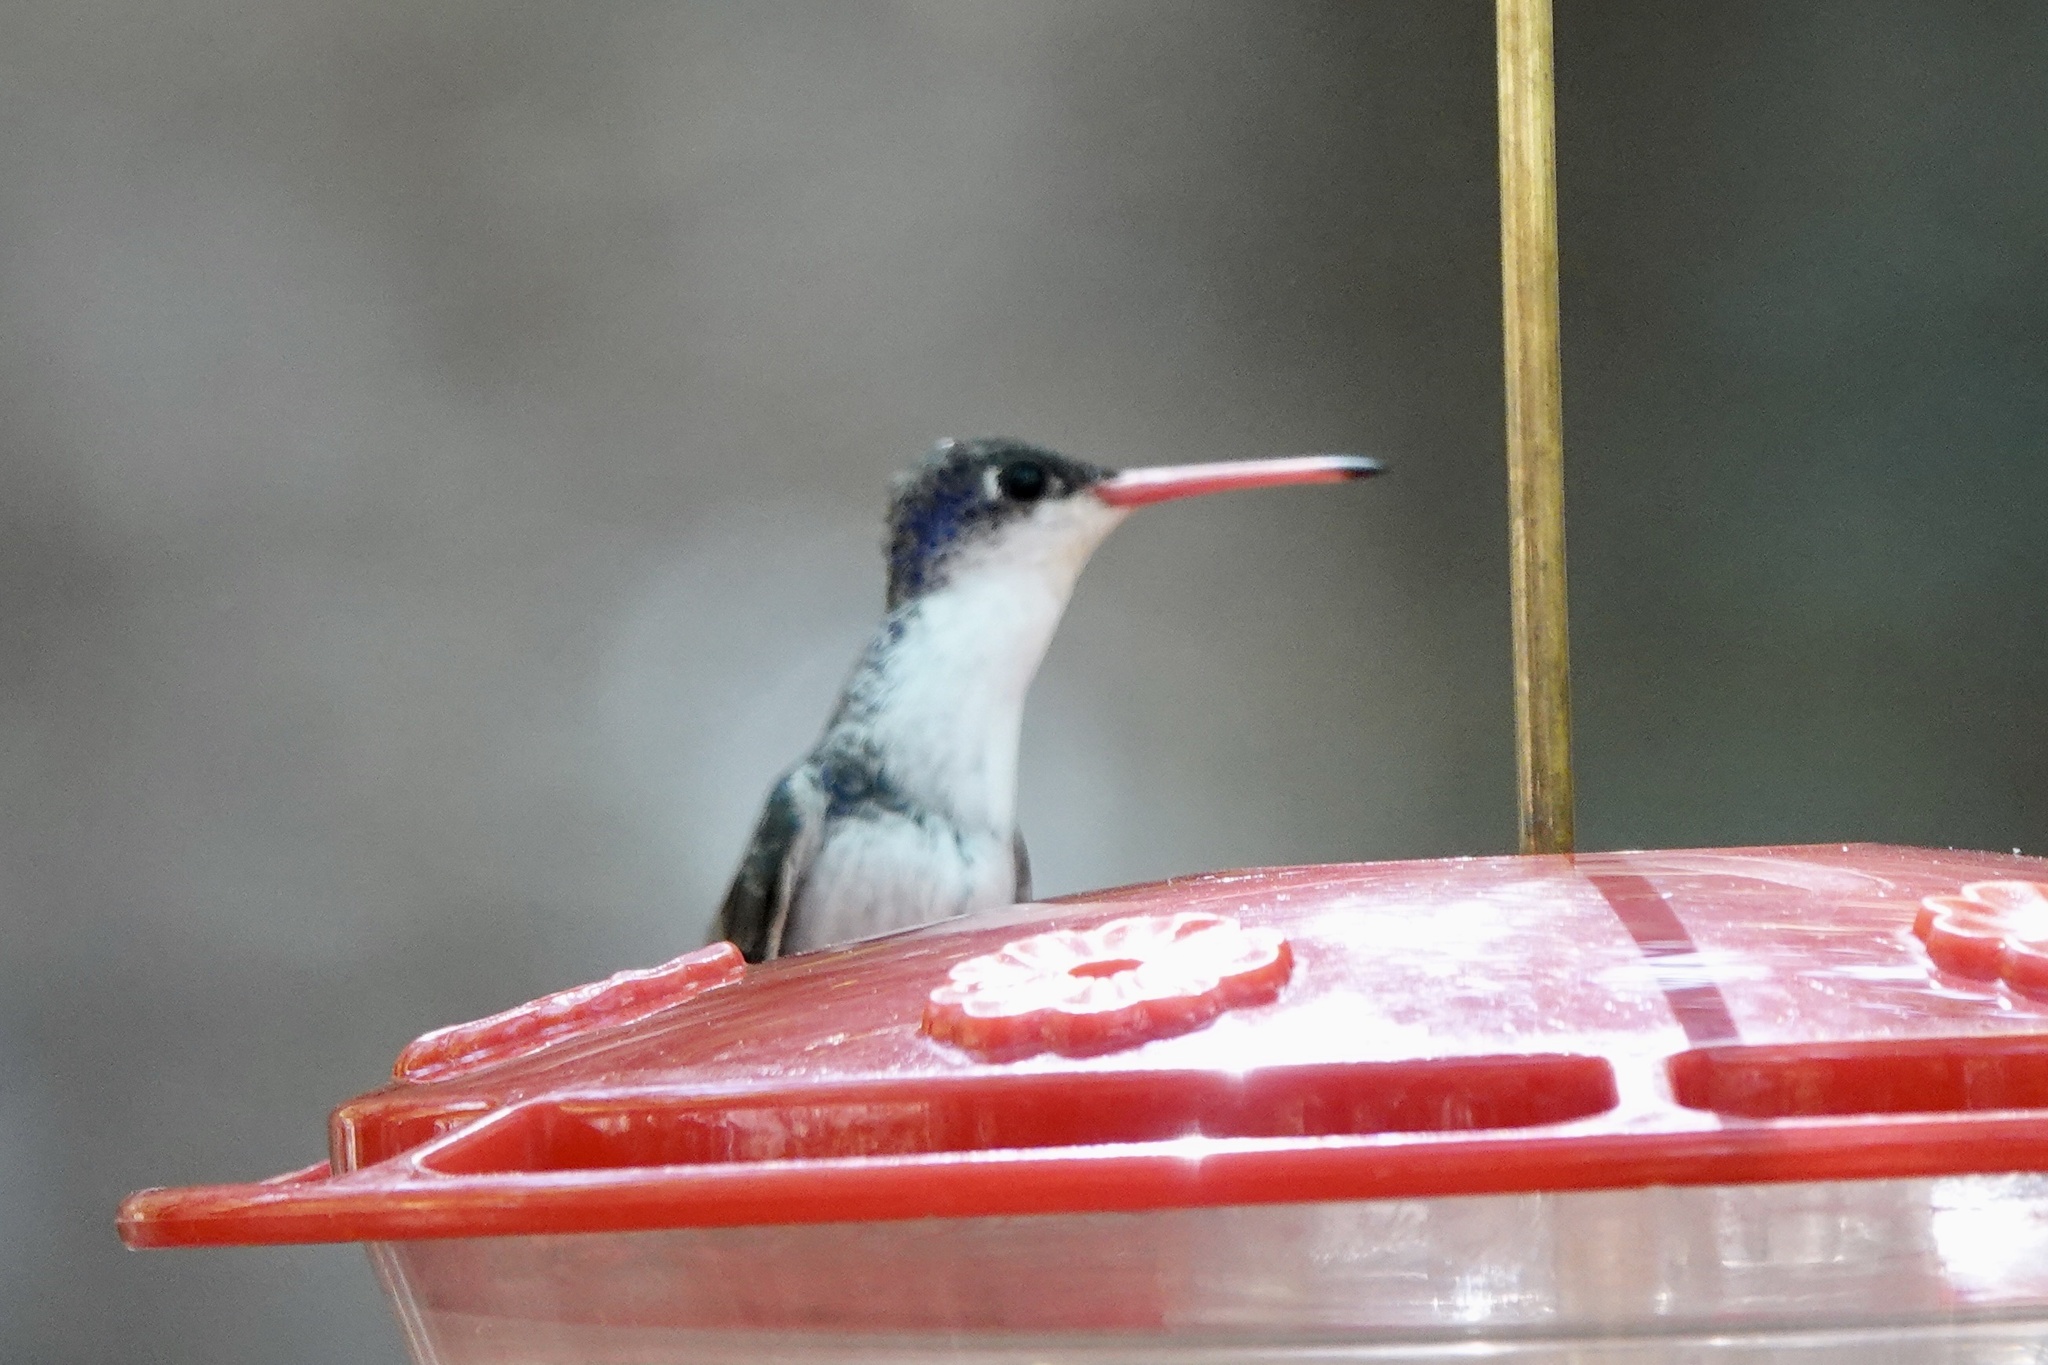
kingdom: Animalia
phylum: Chordata
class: Aves
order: Apodiformes
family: Trochilidae
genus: Leucolia
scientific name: Leucolia violiceps
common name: Violet-crowned hummingbird
